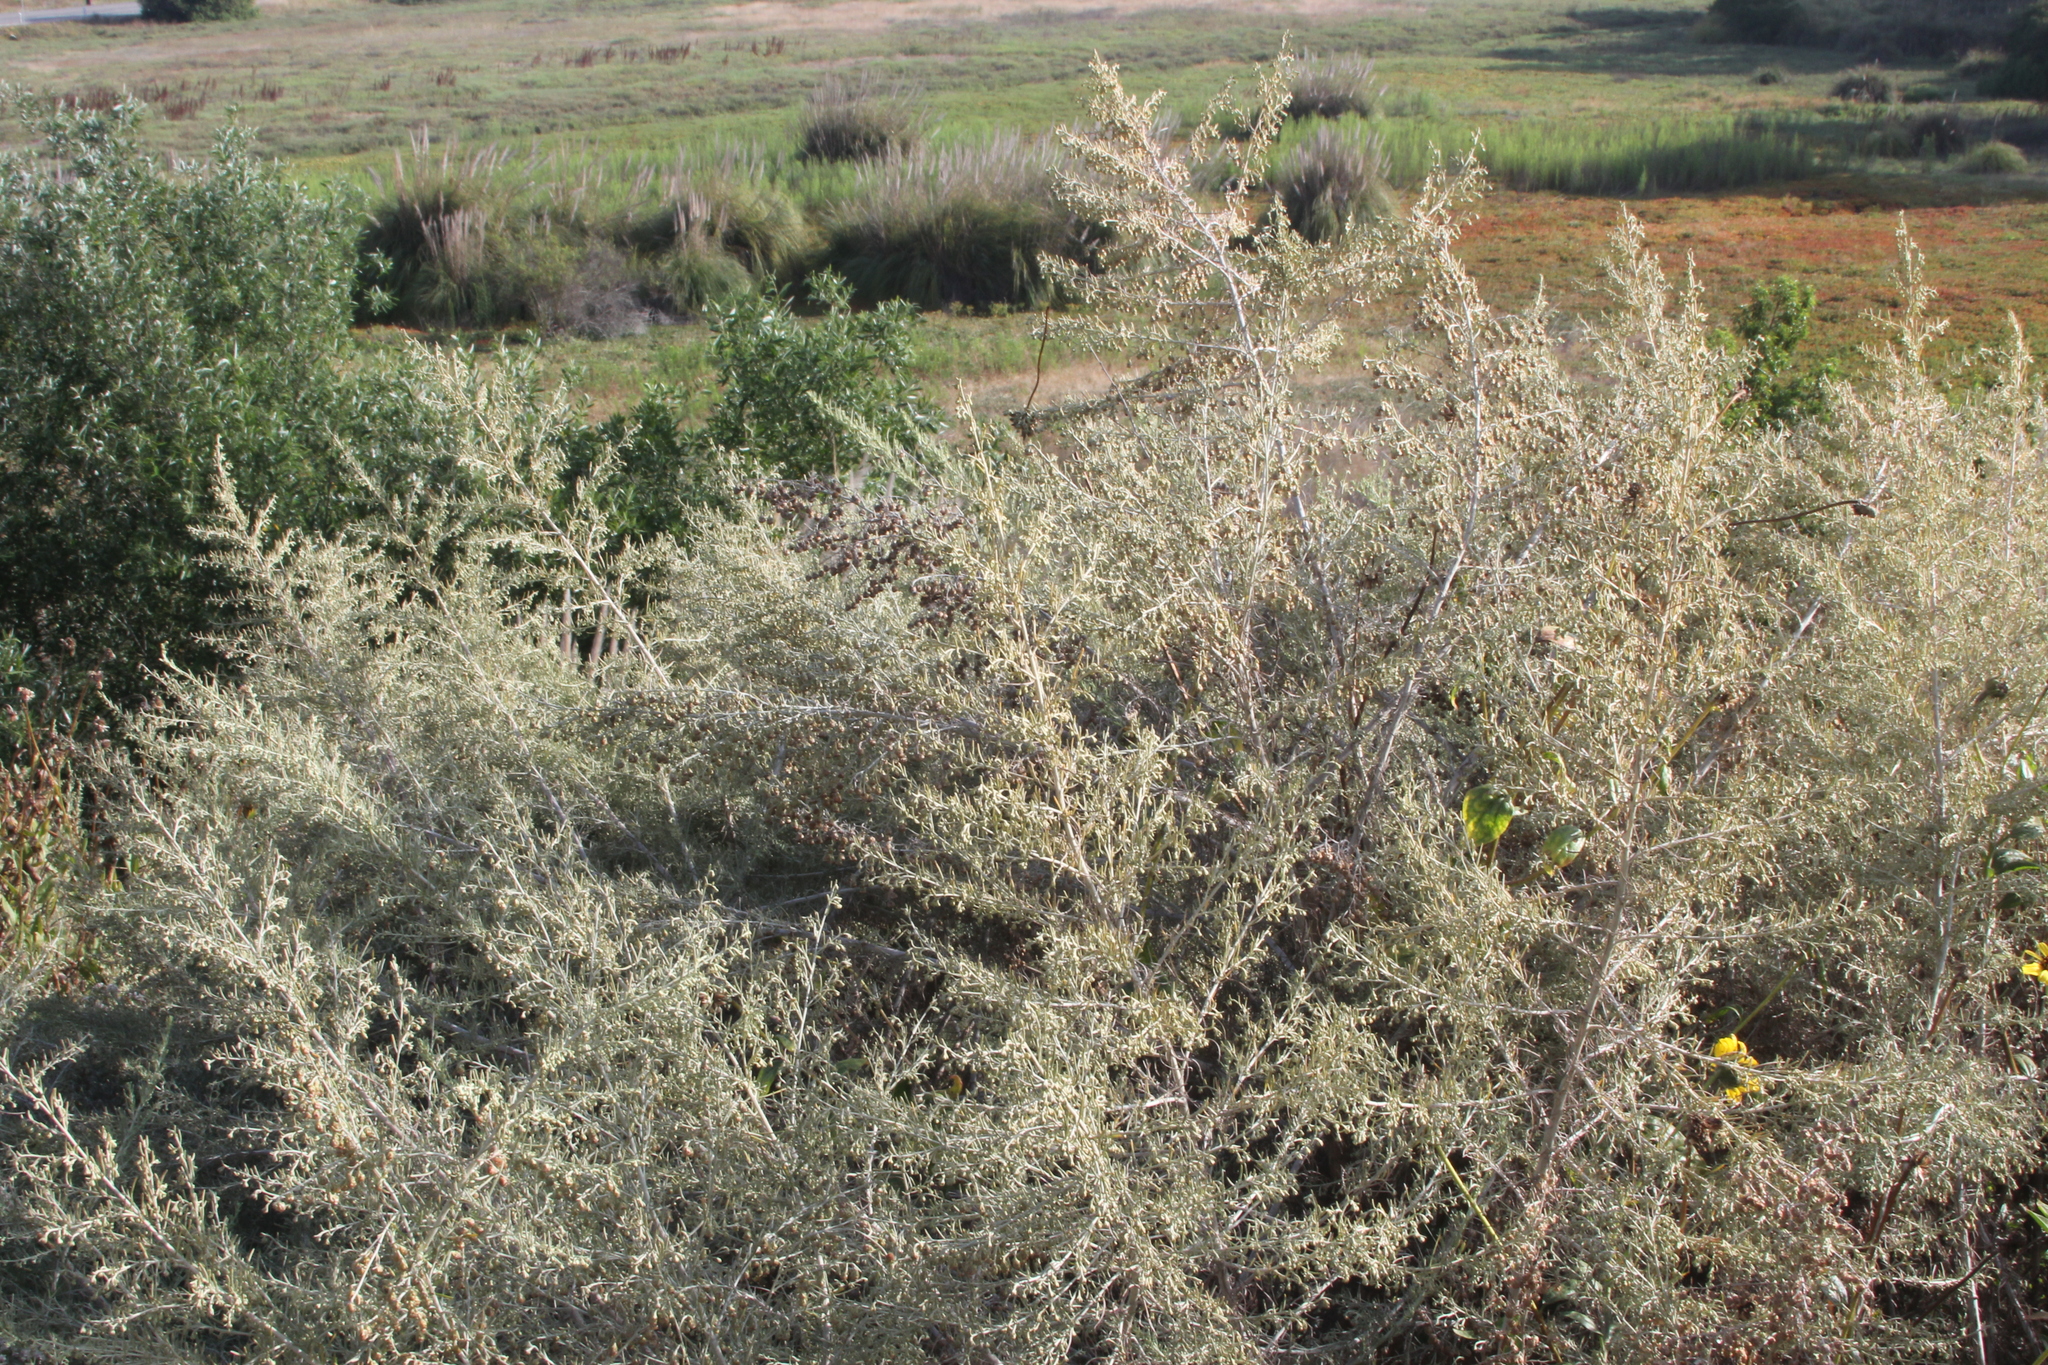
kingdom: Plantae
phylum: Tracheophyta
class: Magnoliopsida
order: Asterales
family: Asteraceae
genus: Artemisia
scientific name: Artemisia californica
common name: California sagebrush
